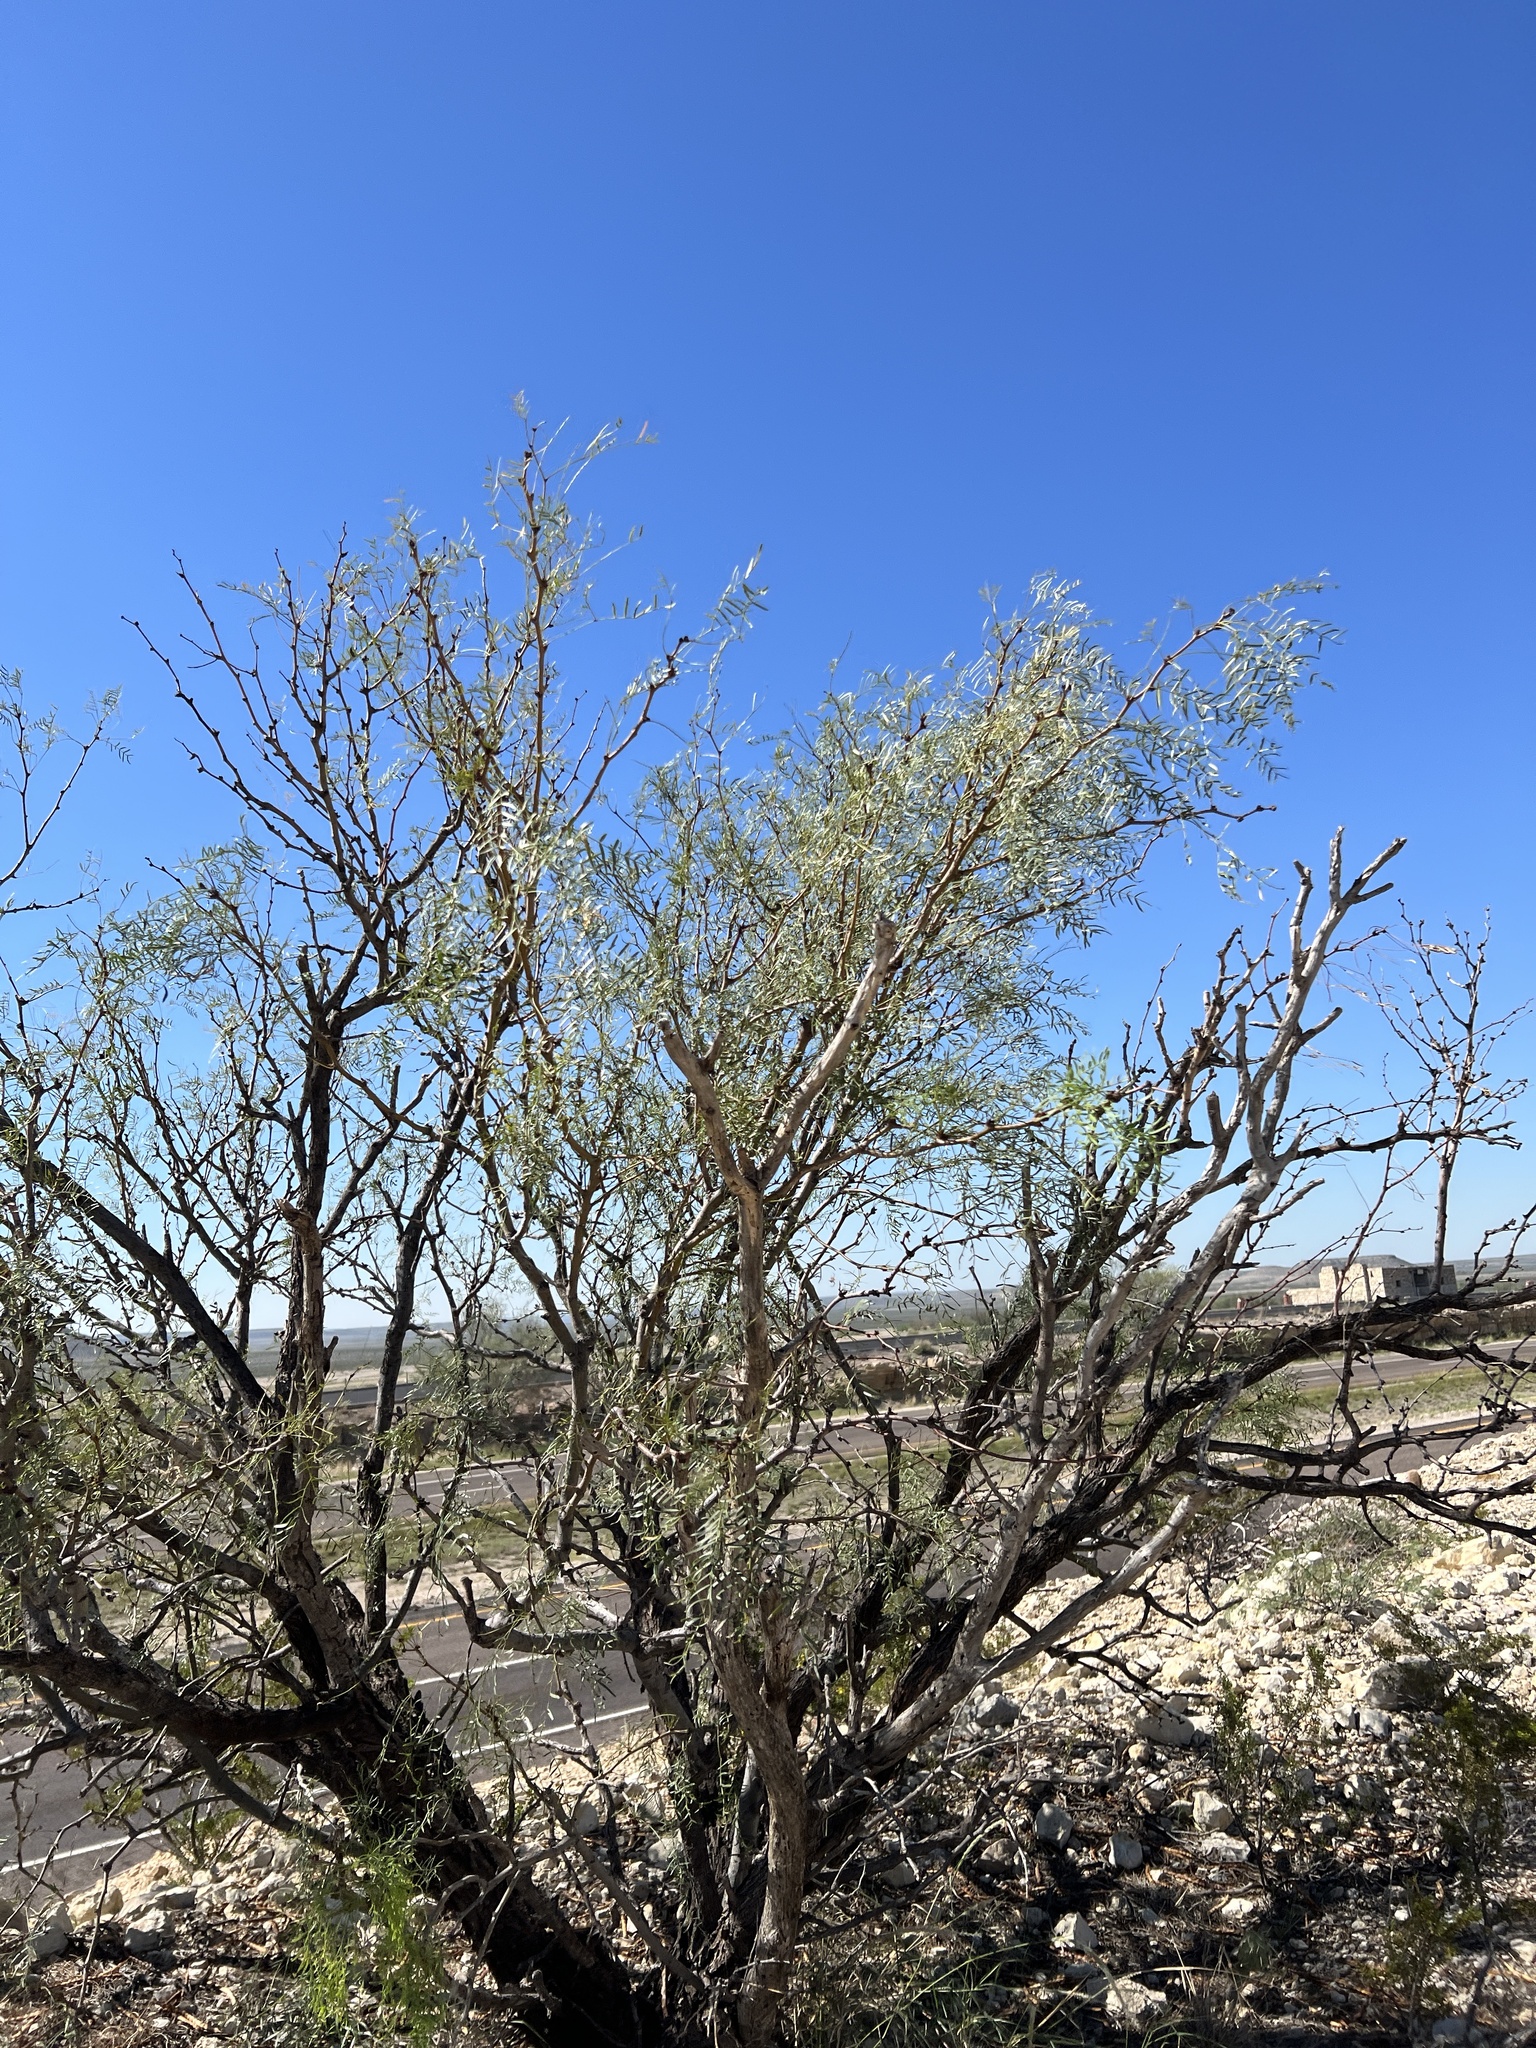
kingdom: Plantae
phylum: Tracheophyta
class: Magnoliopsida
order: Fabales
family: Fabaceae
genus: Prosopis
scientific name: Prosopis glandulosa
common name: Honey mesquite
